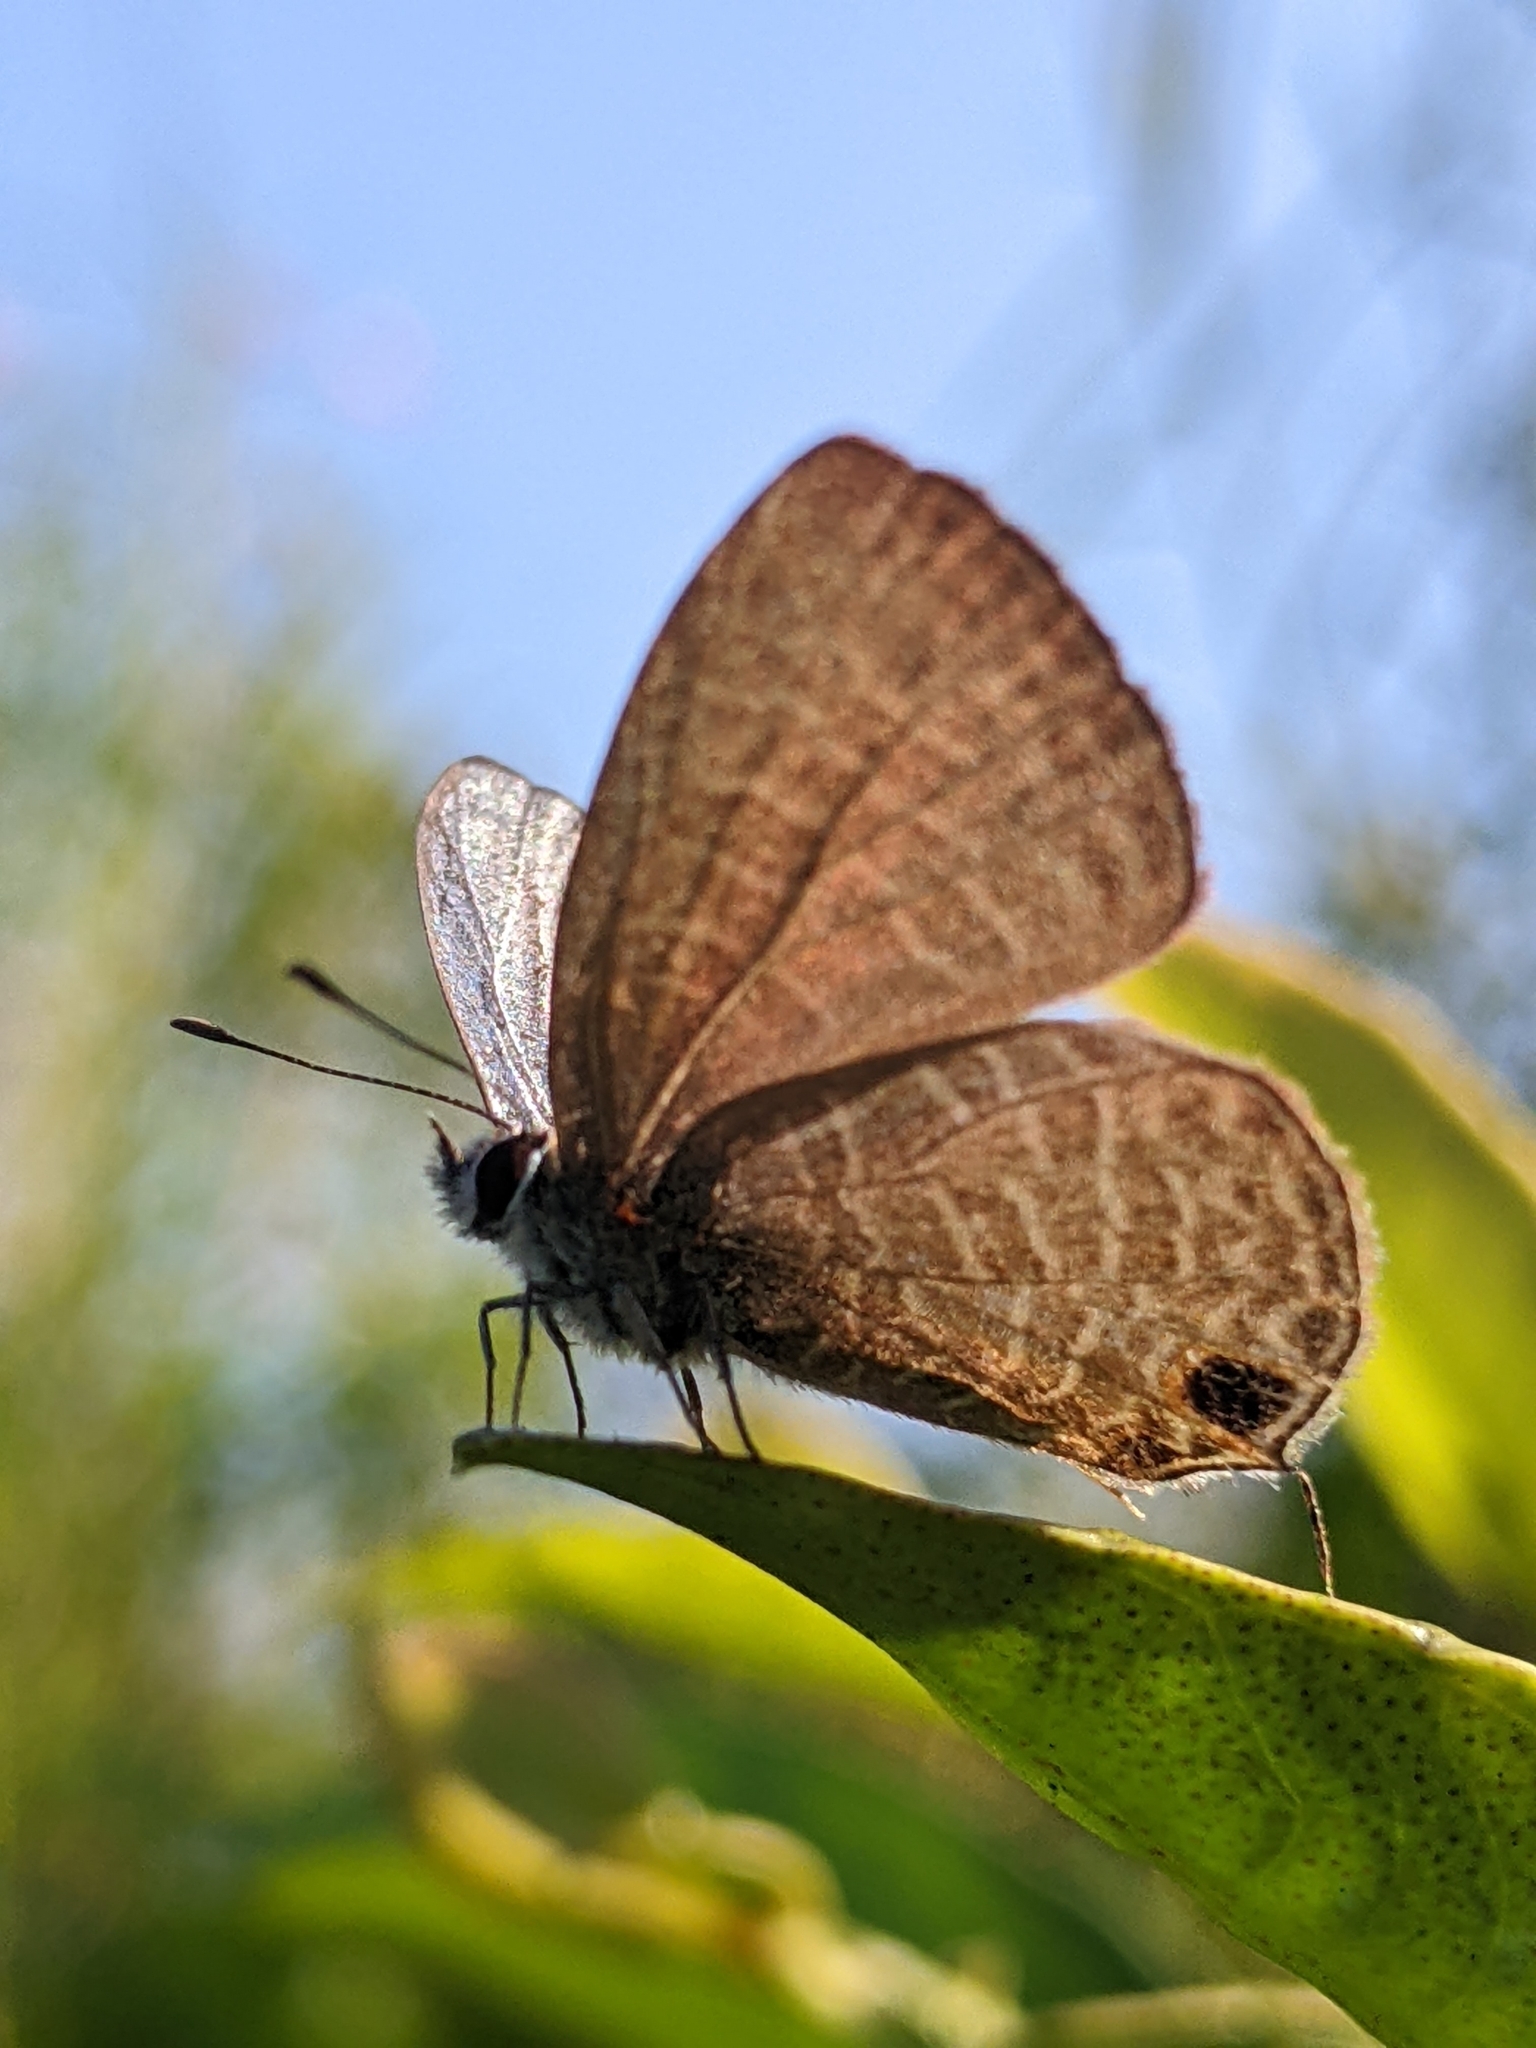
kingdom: Animalia
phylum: Arthropoda
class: Insecta
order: Lepidoptera
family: Lycaenidae
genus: Nacaduba
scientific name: Nacaduba berenice
